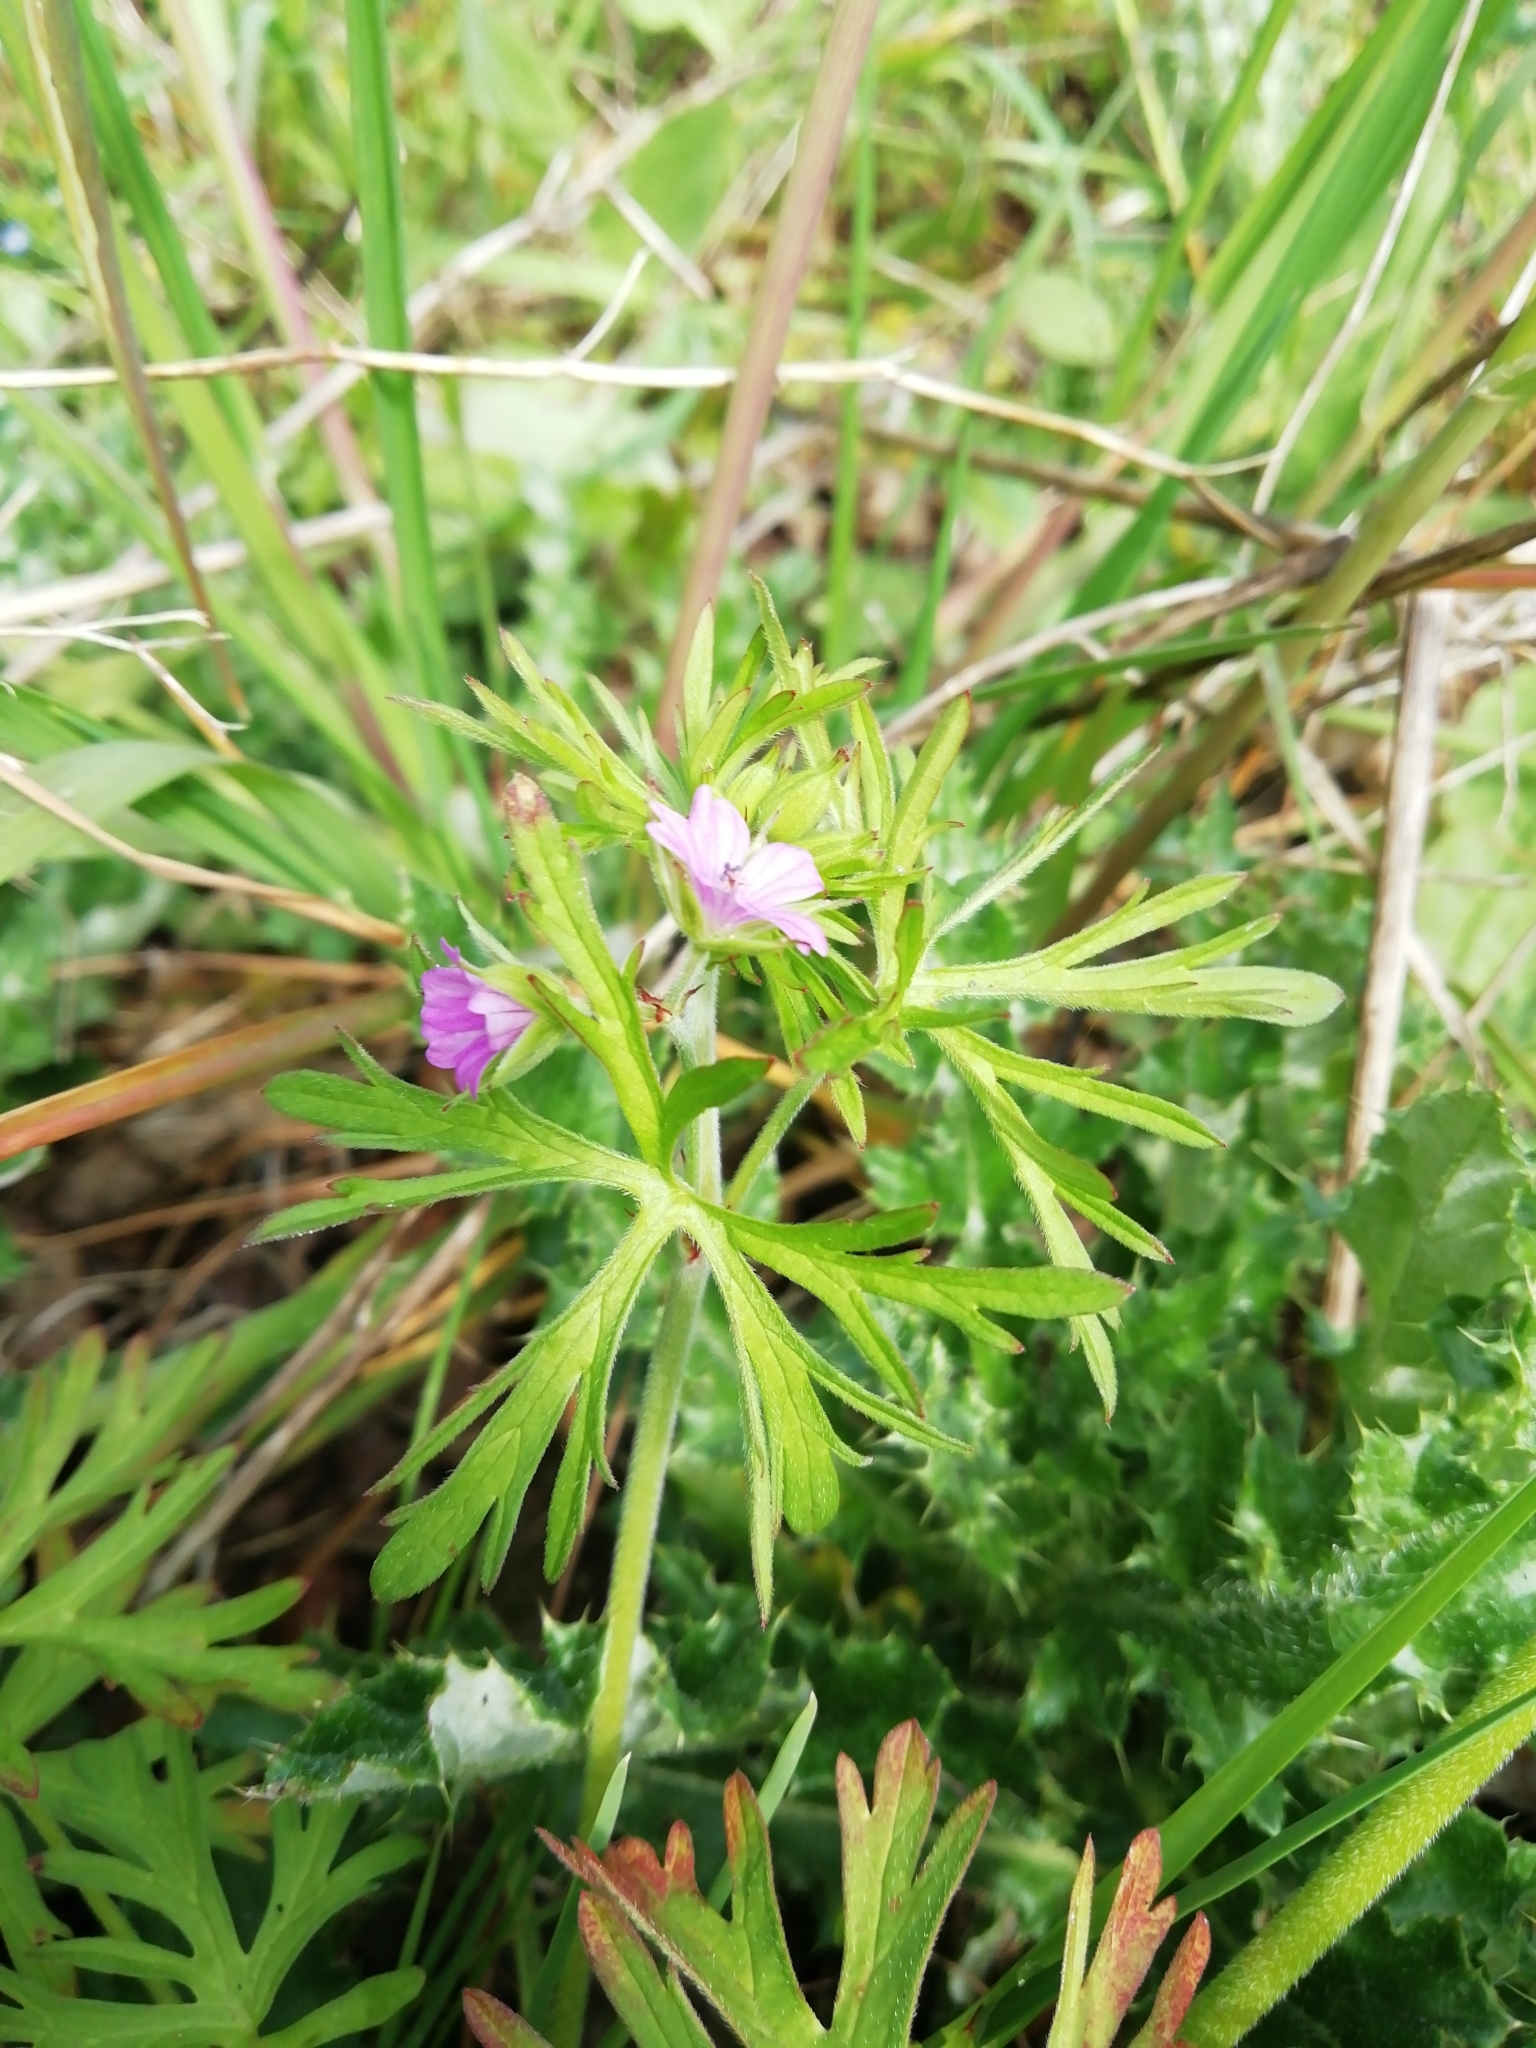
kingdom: Plantae
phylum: Tracheophyta
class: Magnoliopsida
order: Geraniales
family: Geraniaceae
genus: Geranium
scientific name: Geranium dissectum
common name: Cut-leaved crane's-bill
